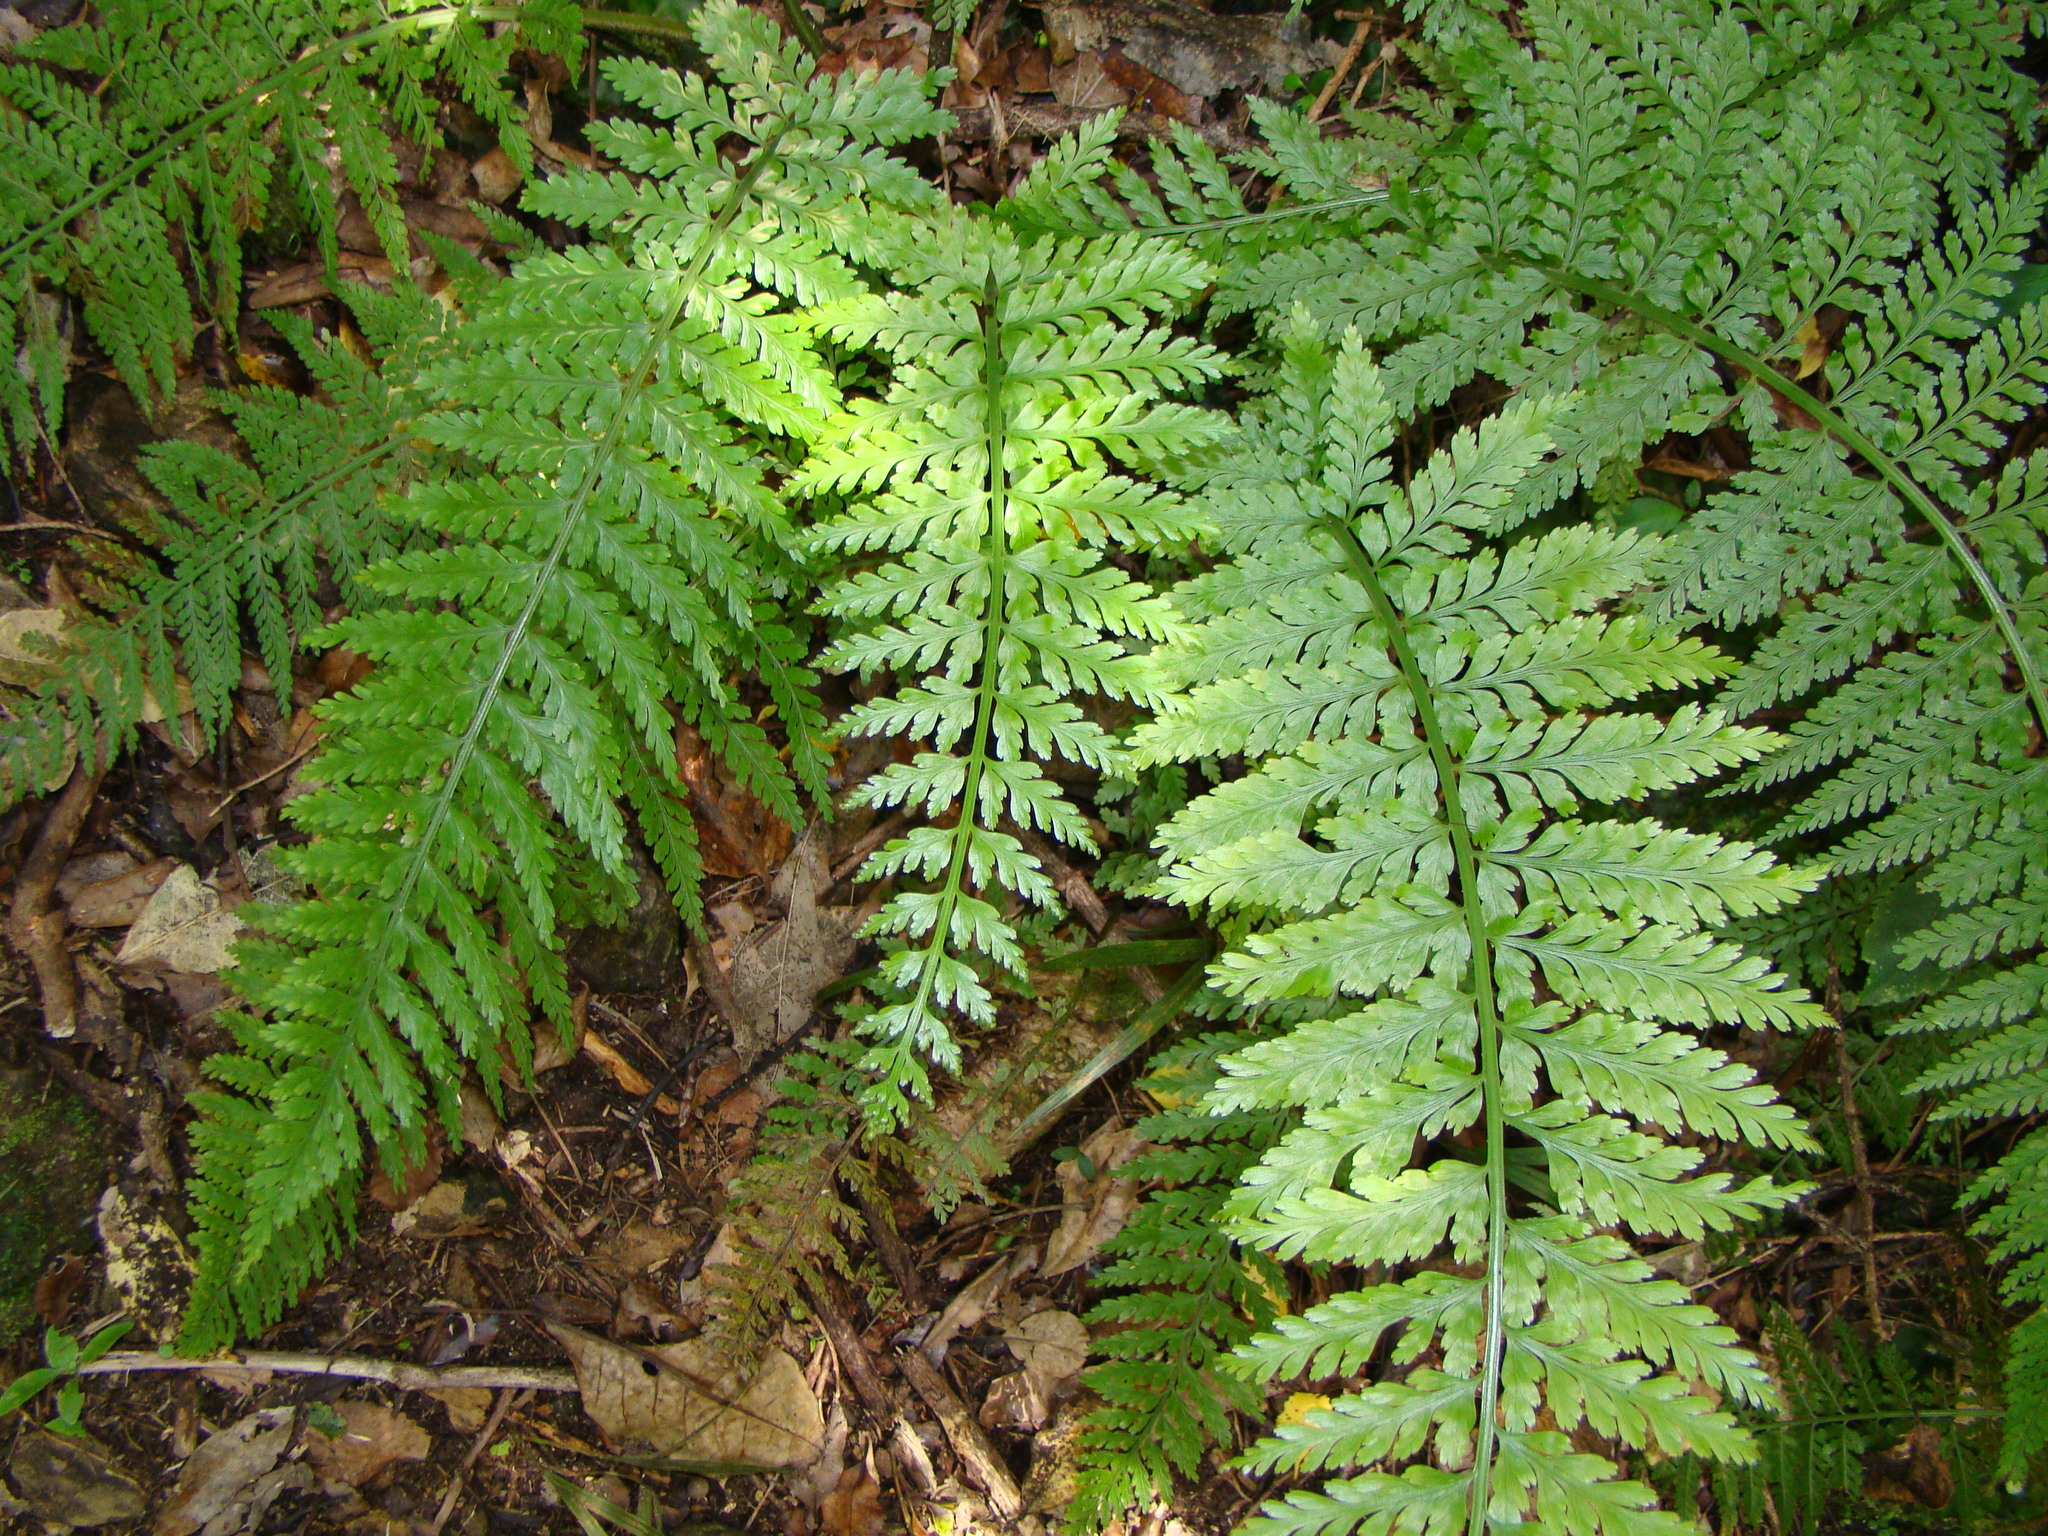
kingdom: Plantae
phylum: Tracheophyta
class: Polypodiopsida
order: Polypodiales
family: Aspleniaceae
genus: Asplenium
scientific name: Asplenium bulbiferum
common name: Mother fern
